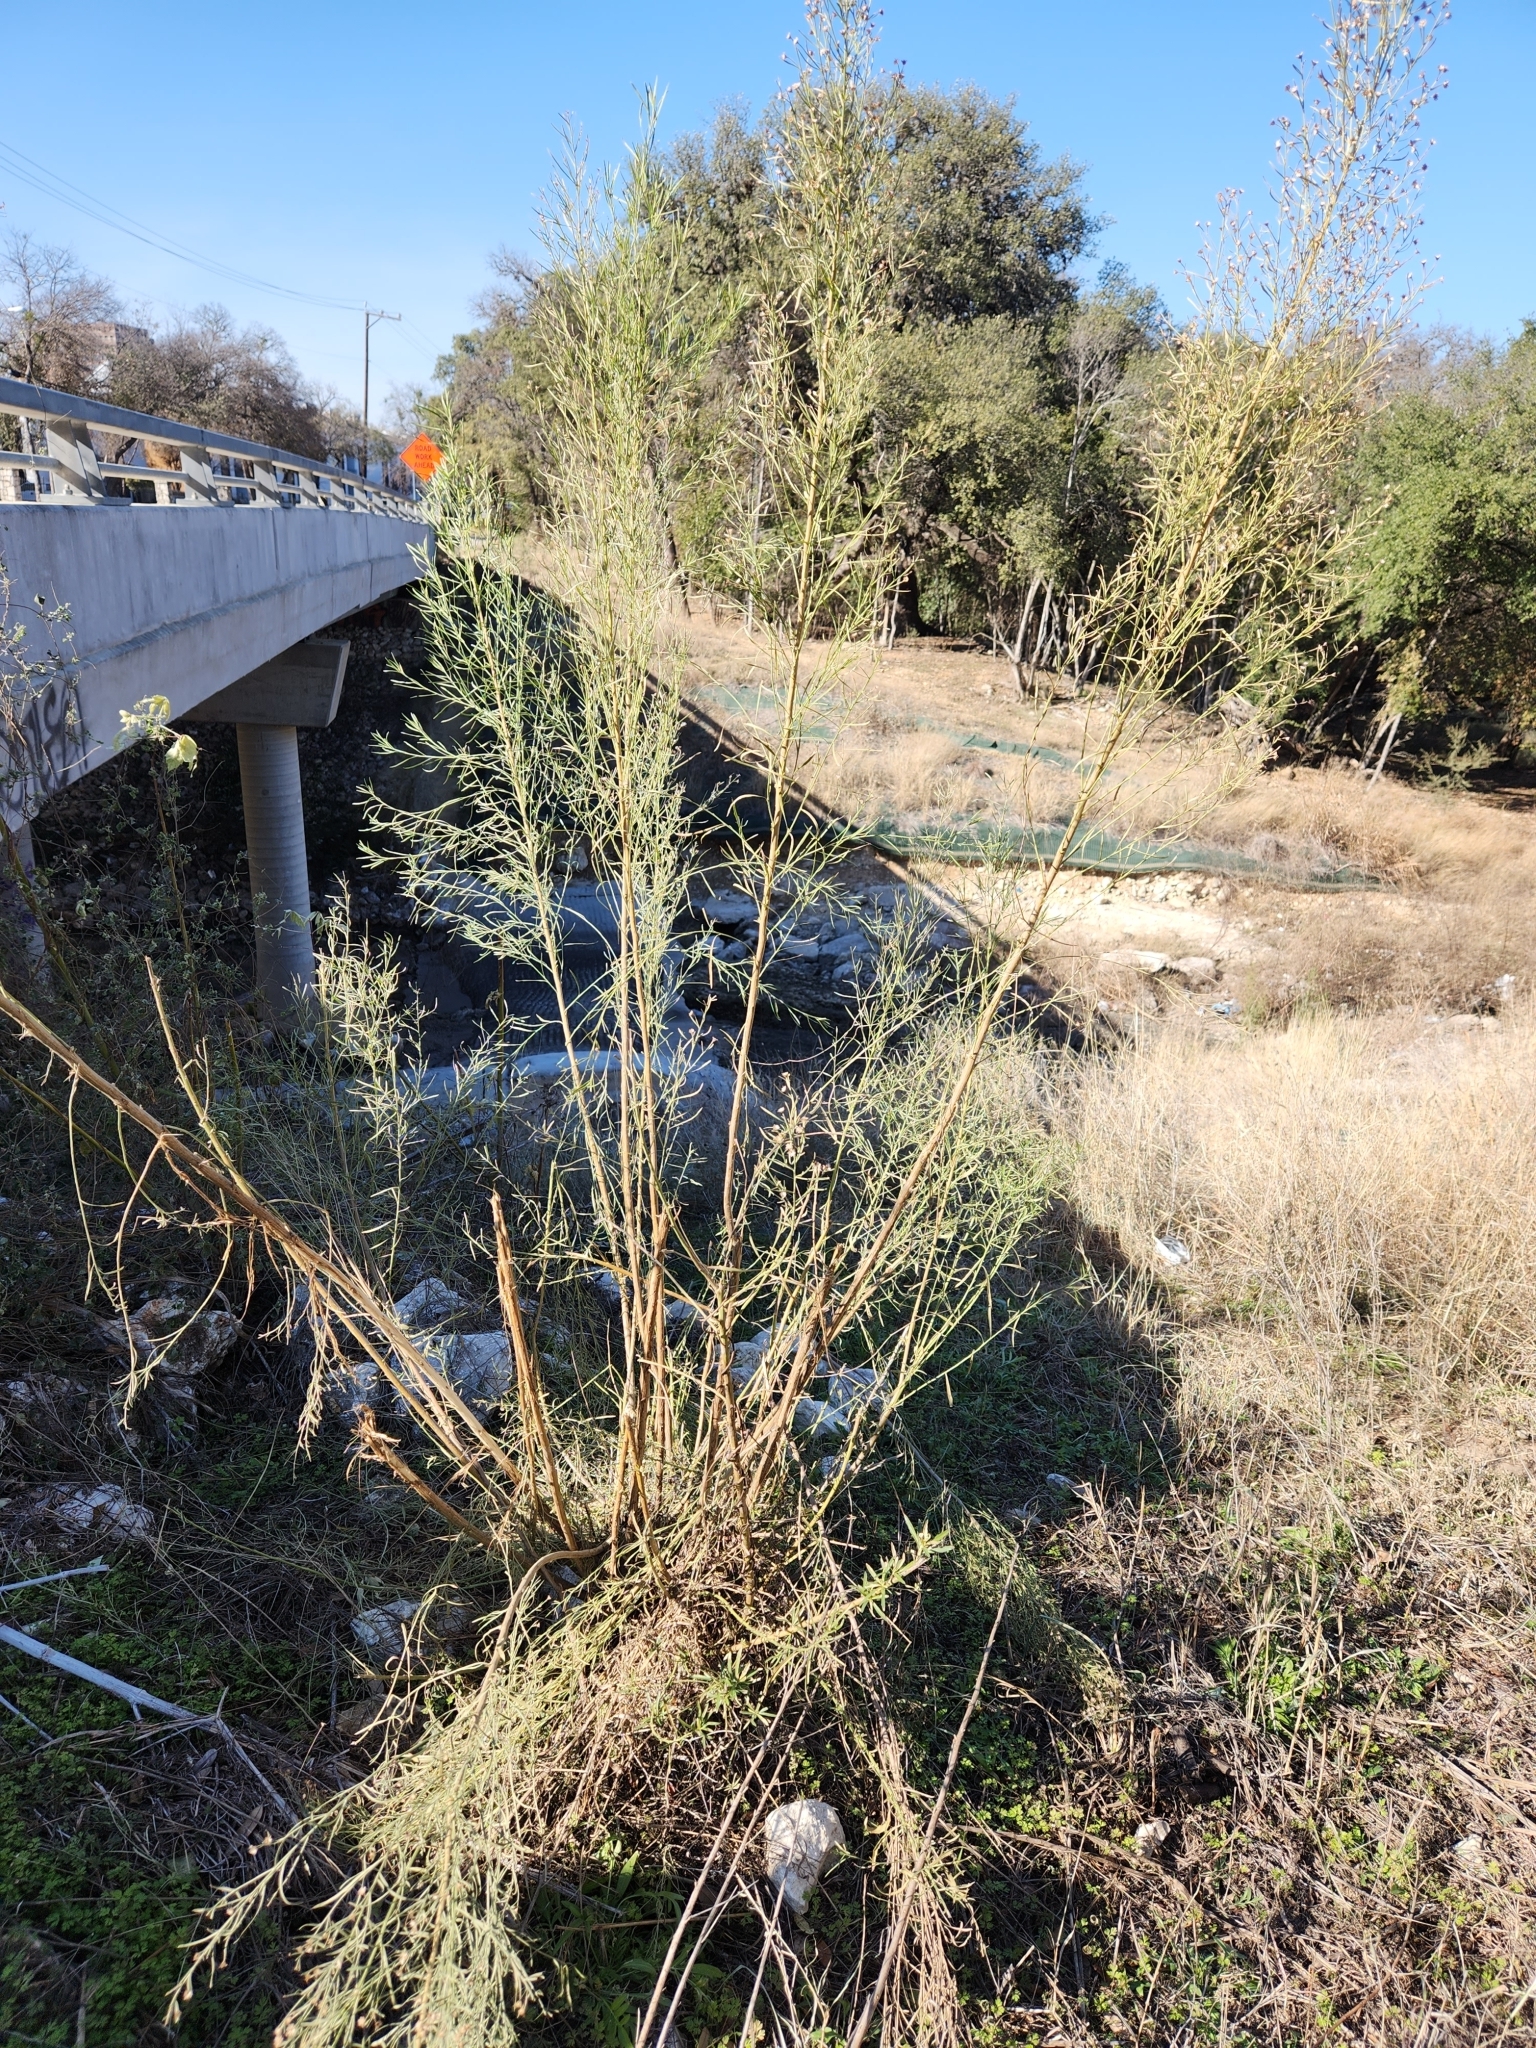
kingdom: Plantae
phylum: Tracheophyta
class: Magnoliopsida
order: Asterales
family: Asteraceae
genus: Baccharis
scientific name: Baccharis neglecta
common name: Roosevelt-weed
